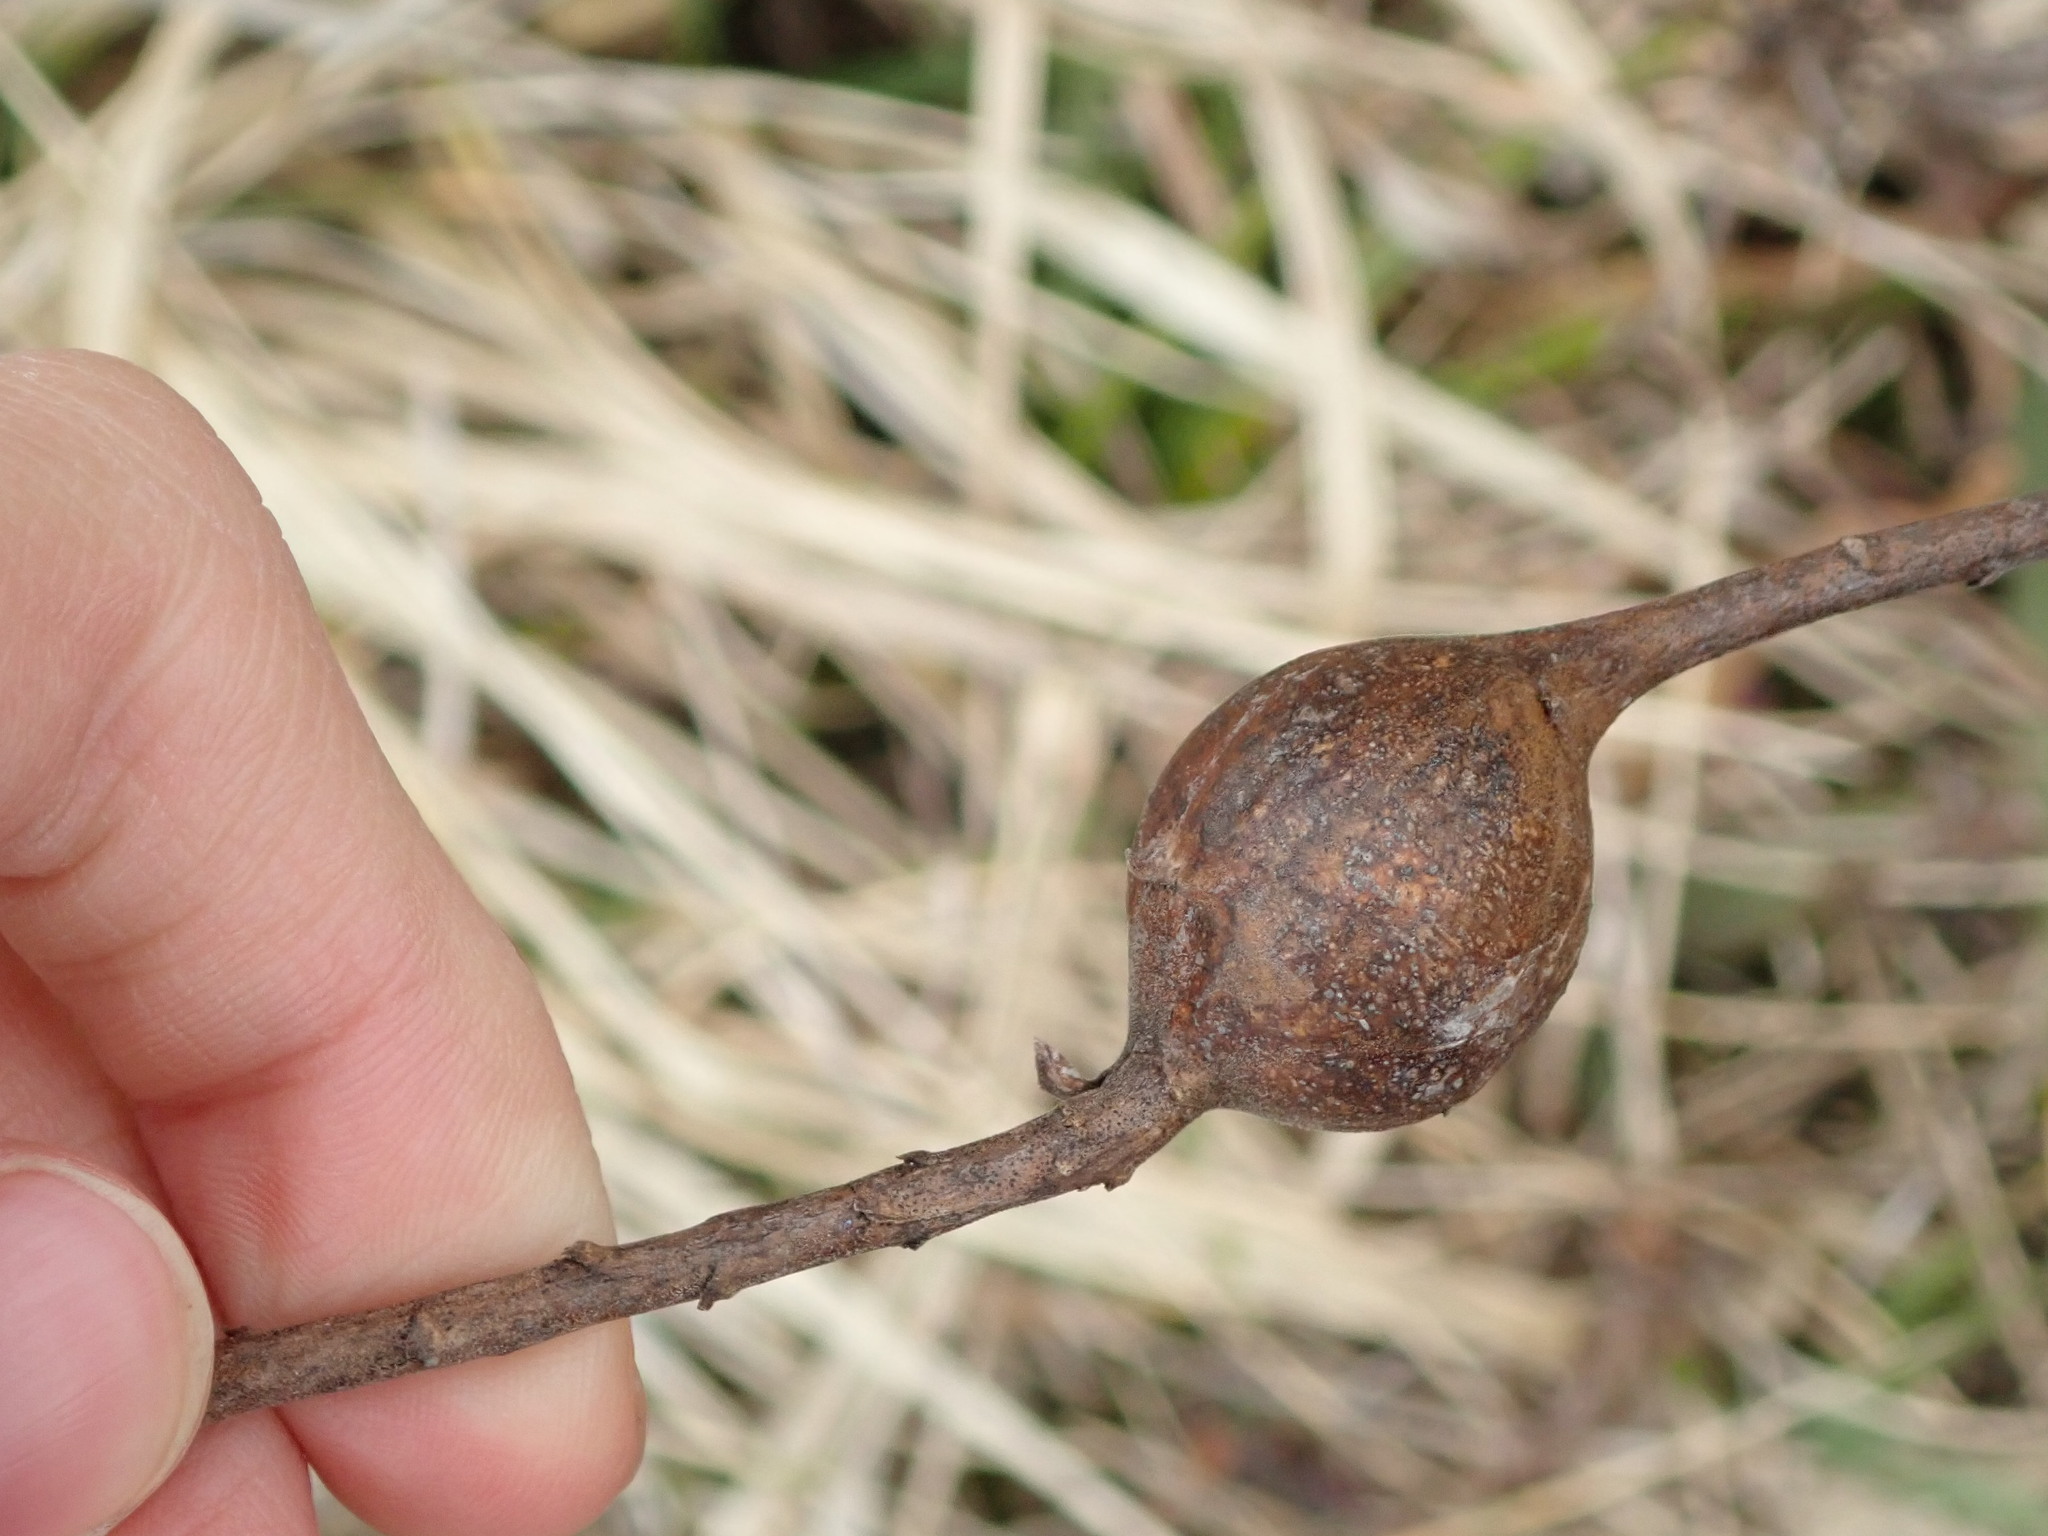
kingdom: Animalia
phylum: Arthropoda
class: Insecta
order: Diptera
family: Tephritidae
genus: Eurosta
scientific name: Eurosta solidaginis
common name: Goldenrod gall fly
